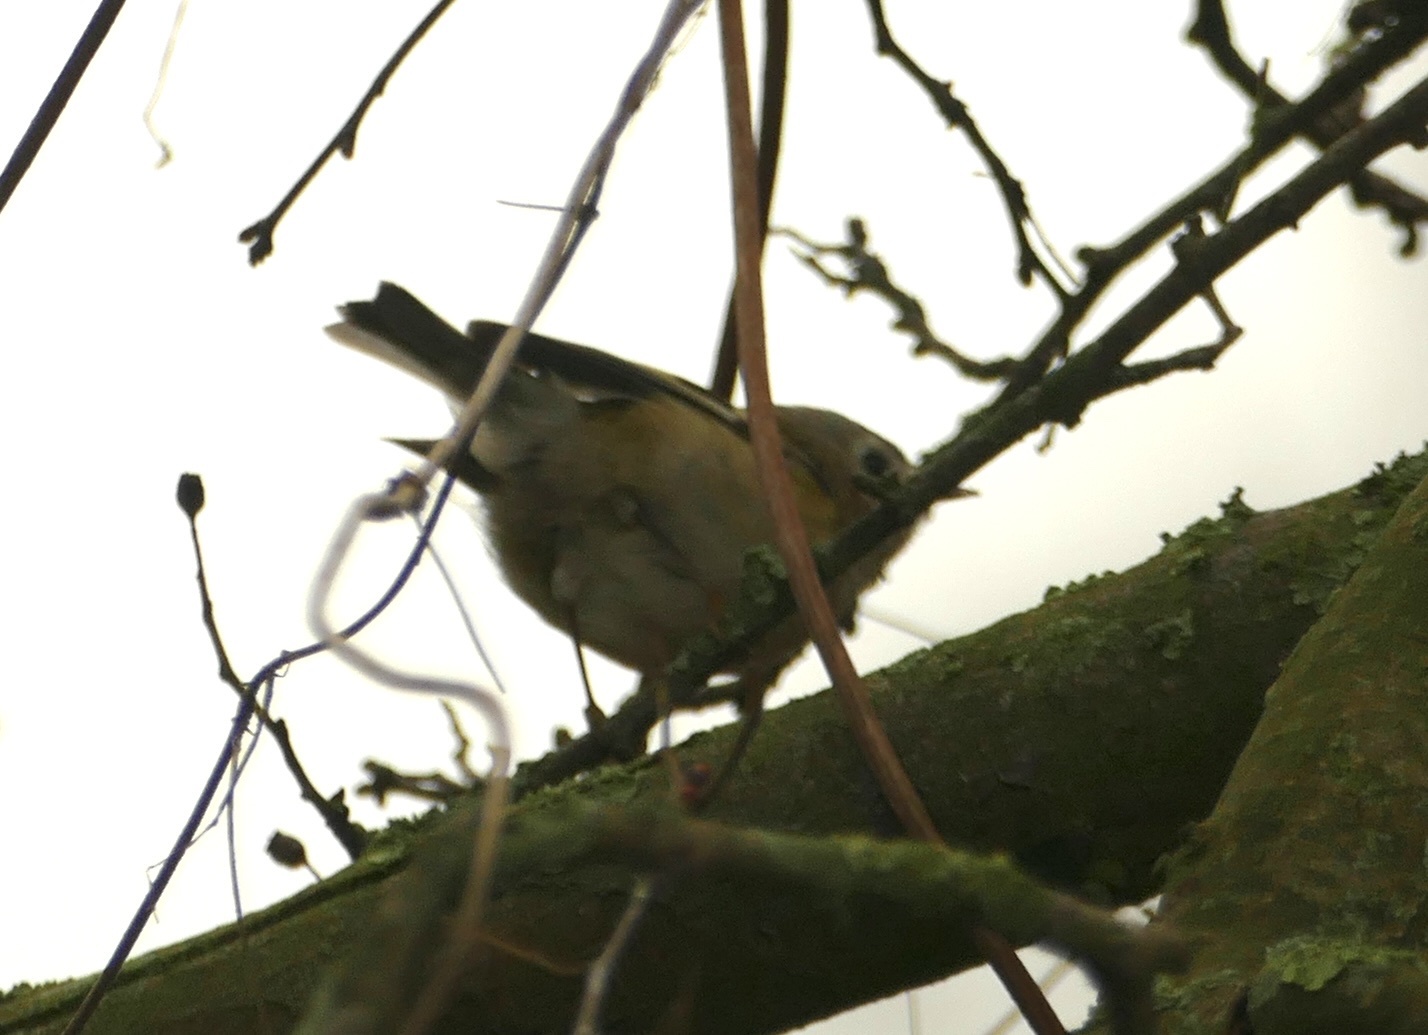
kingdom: Animalia
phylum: Chordata
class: Aves
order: Passeriformes
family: Regulidae
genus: Regulus
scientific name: Regulus regulus
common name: Goldcrest
